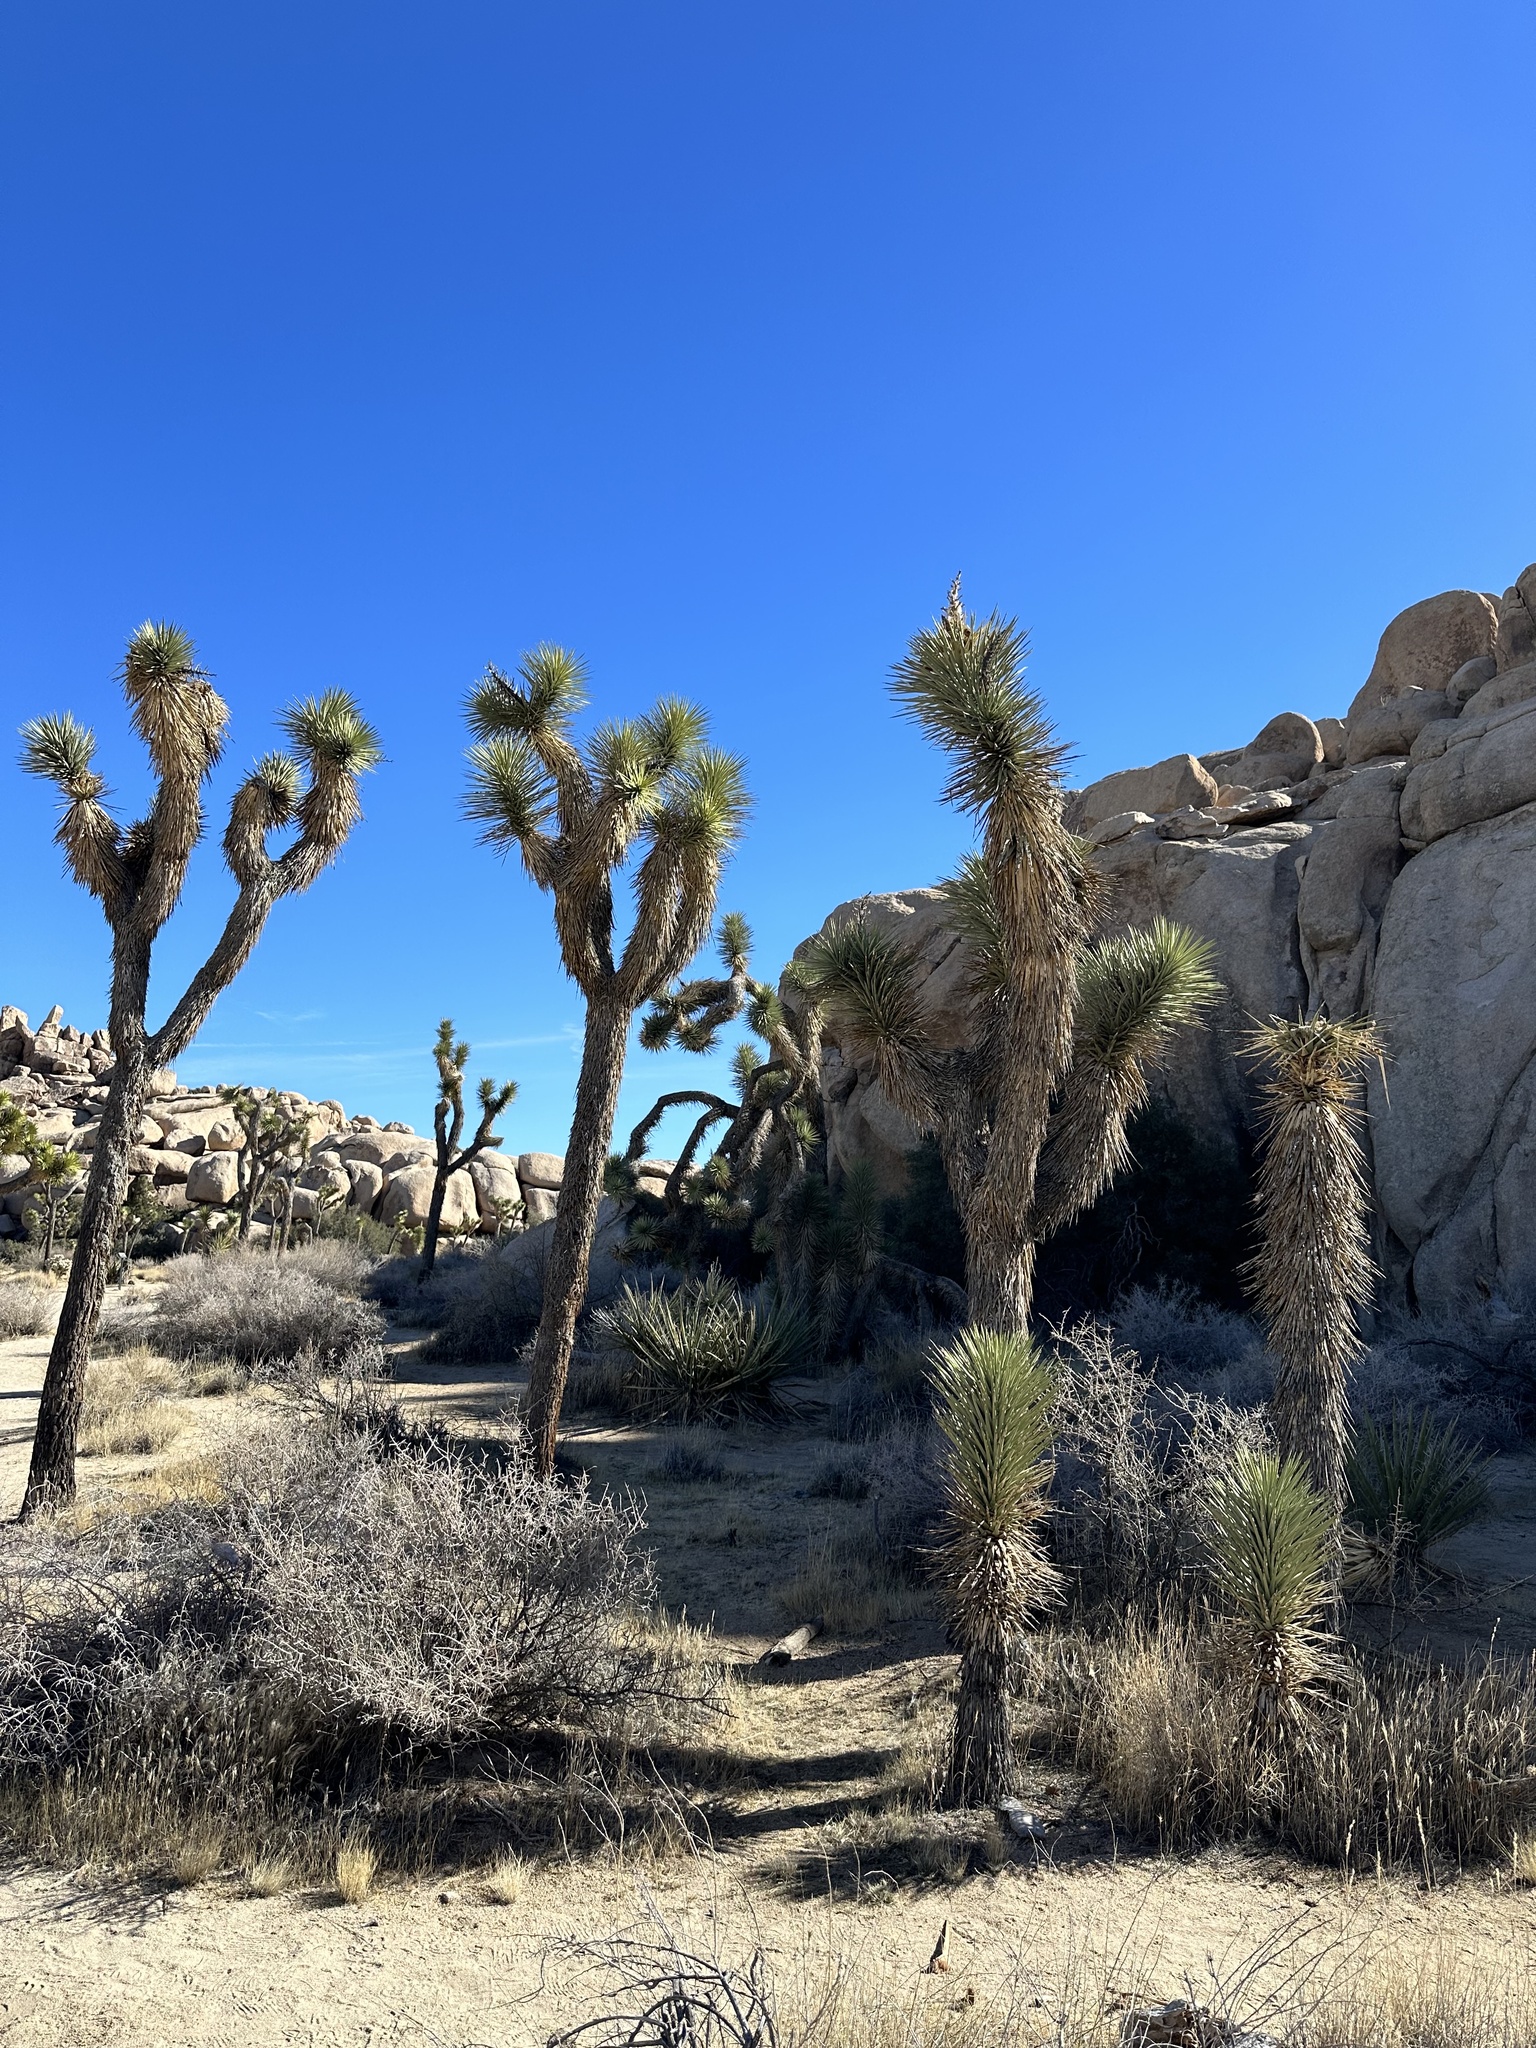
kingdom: Plantae
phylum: Tracheophyta
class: Liliopsida
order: Asparagales
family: Asparagaceae
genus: Yucca
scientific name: Yucca brevifolia
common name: Joshua tree
